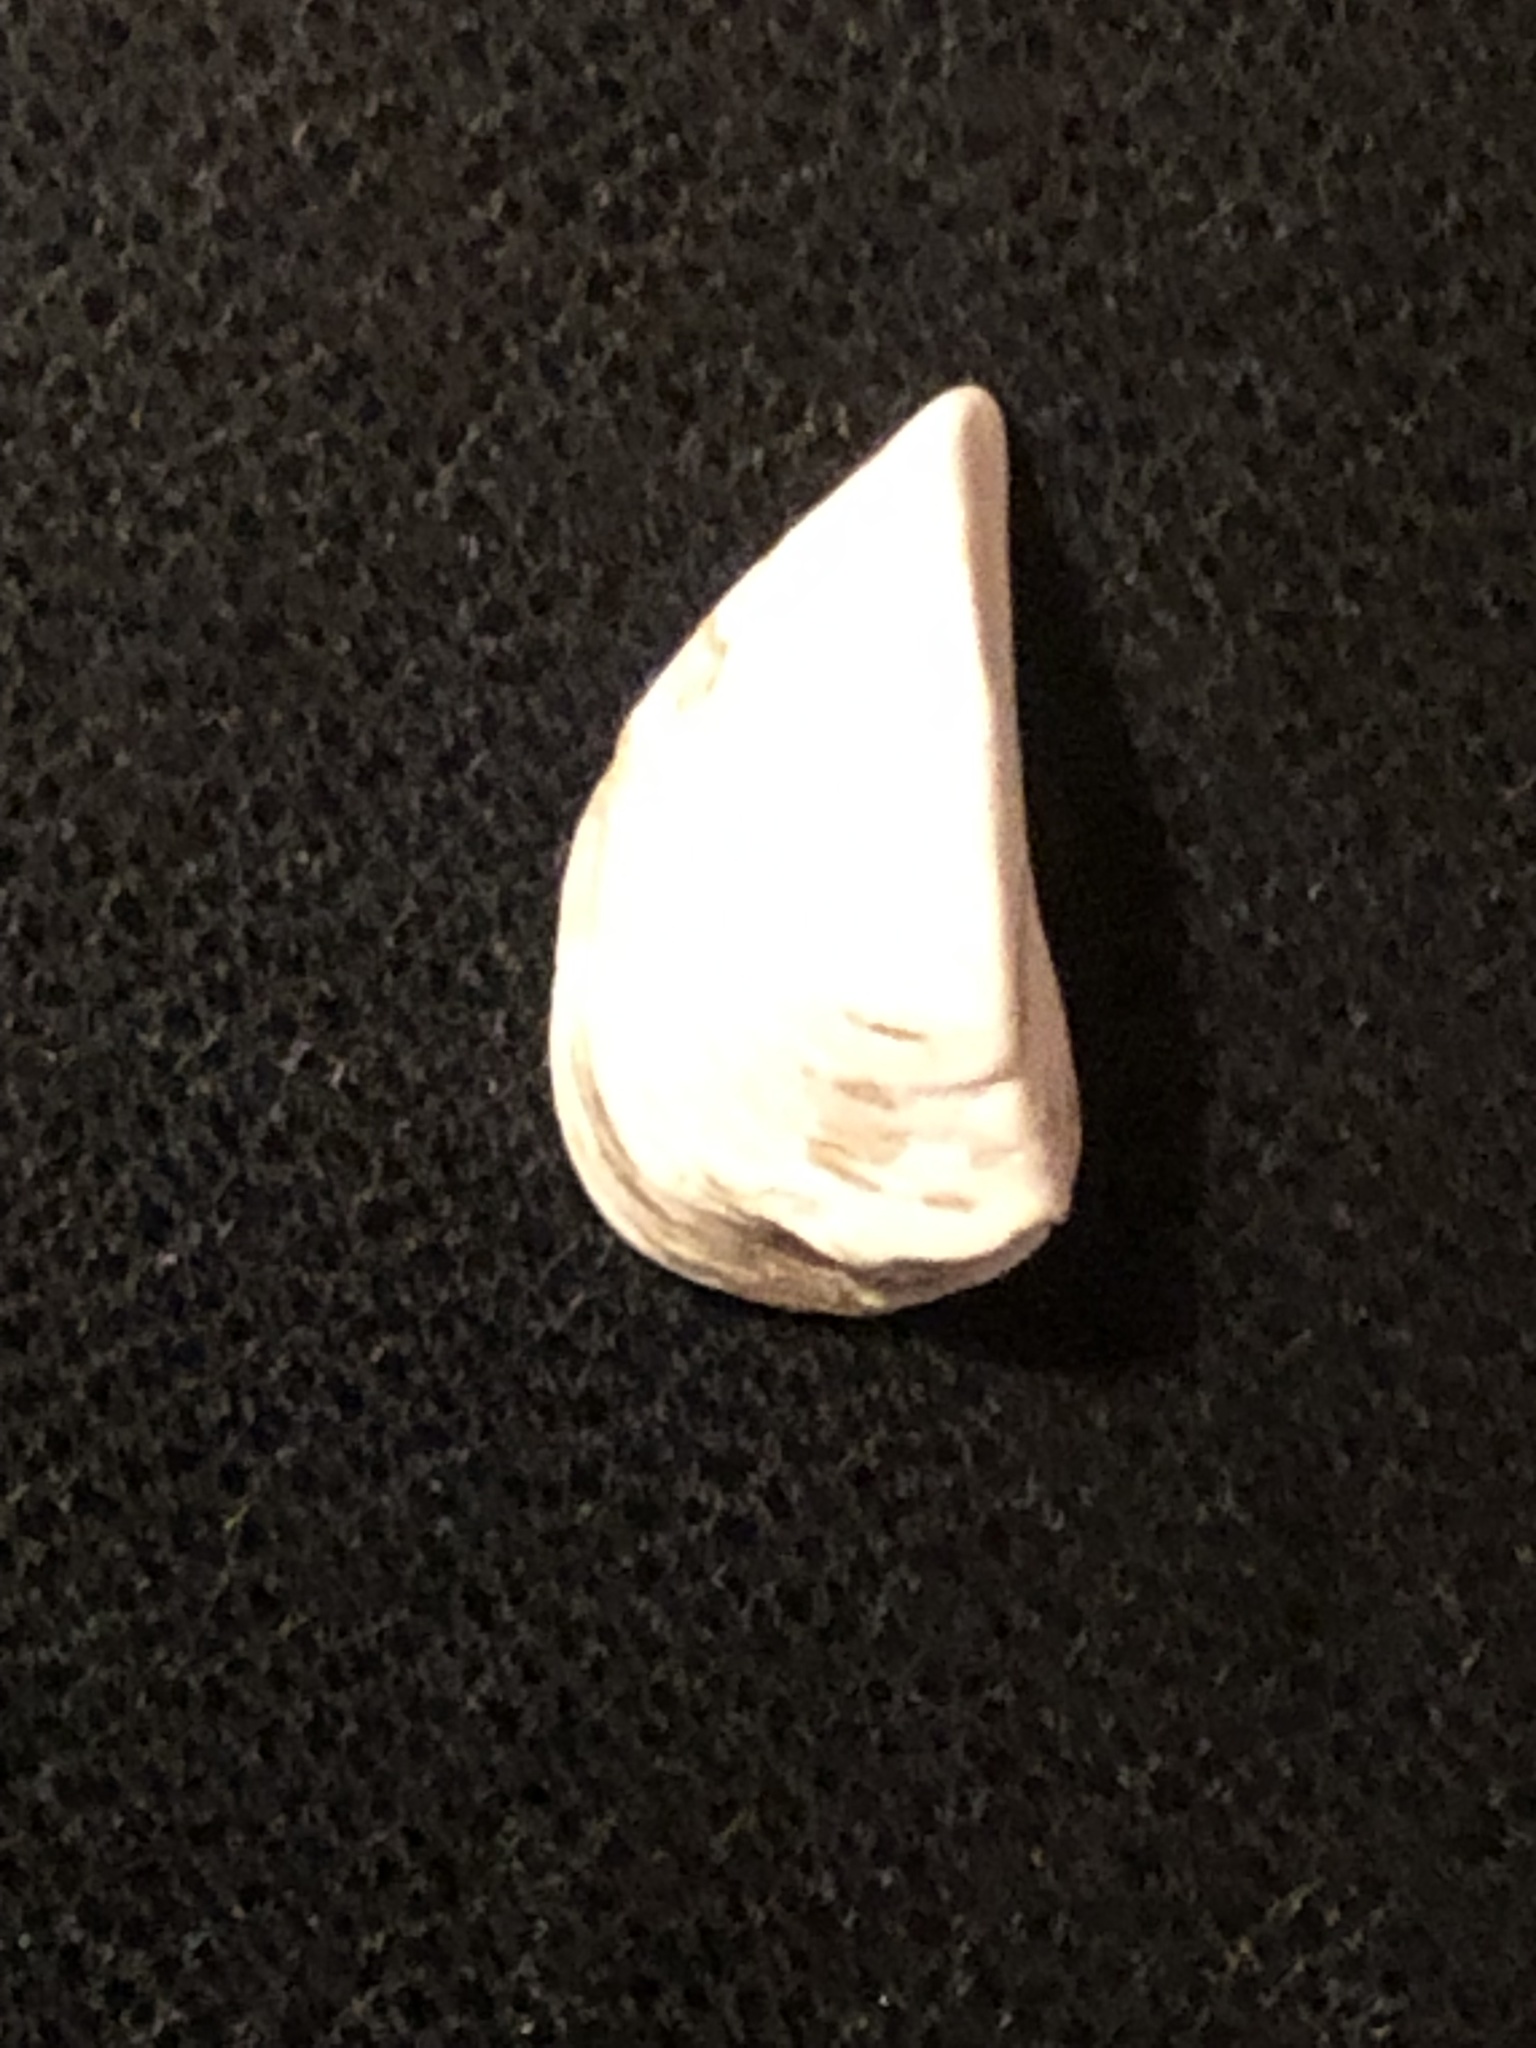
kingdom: Animalia
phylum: Mollusca
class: Bivalvia
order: Myida
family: Dreissenidae
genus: Dreissena
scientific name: Dreissena polymorpha
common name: Zebra mussel
